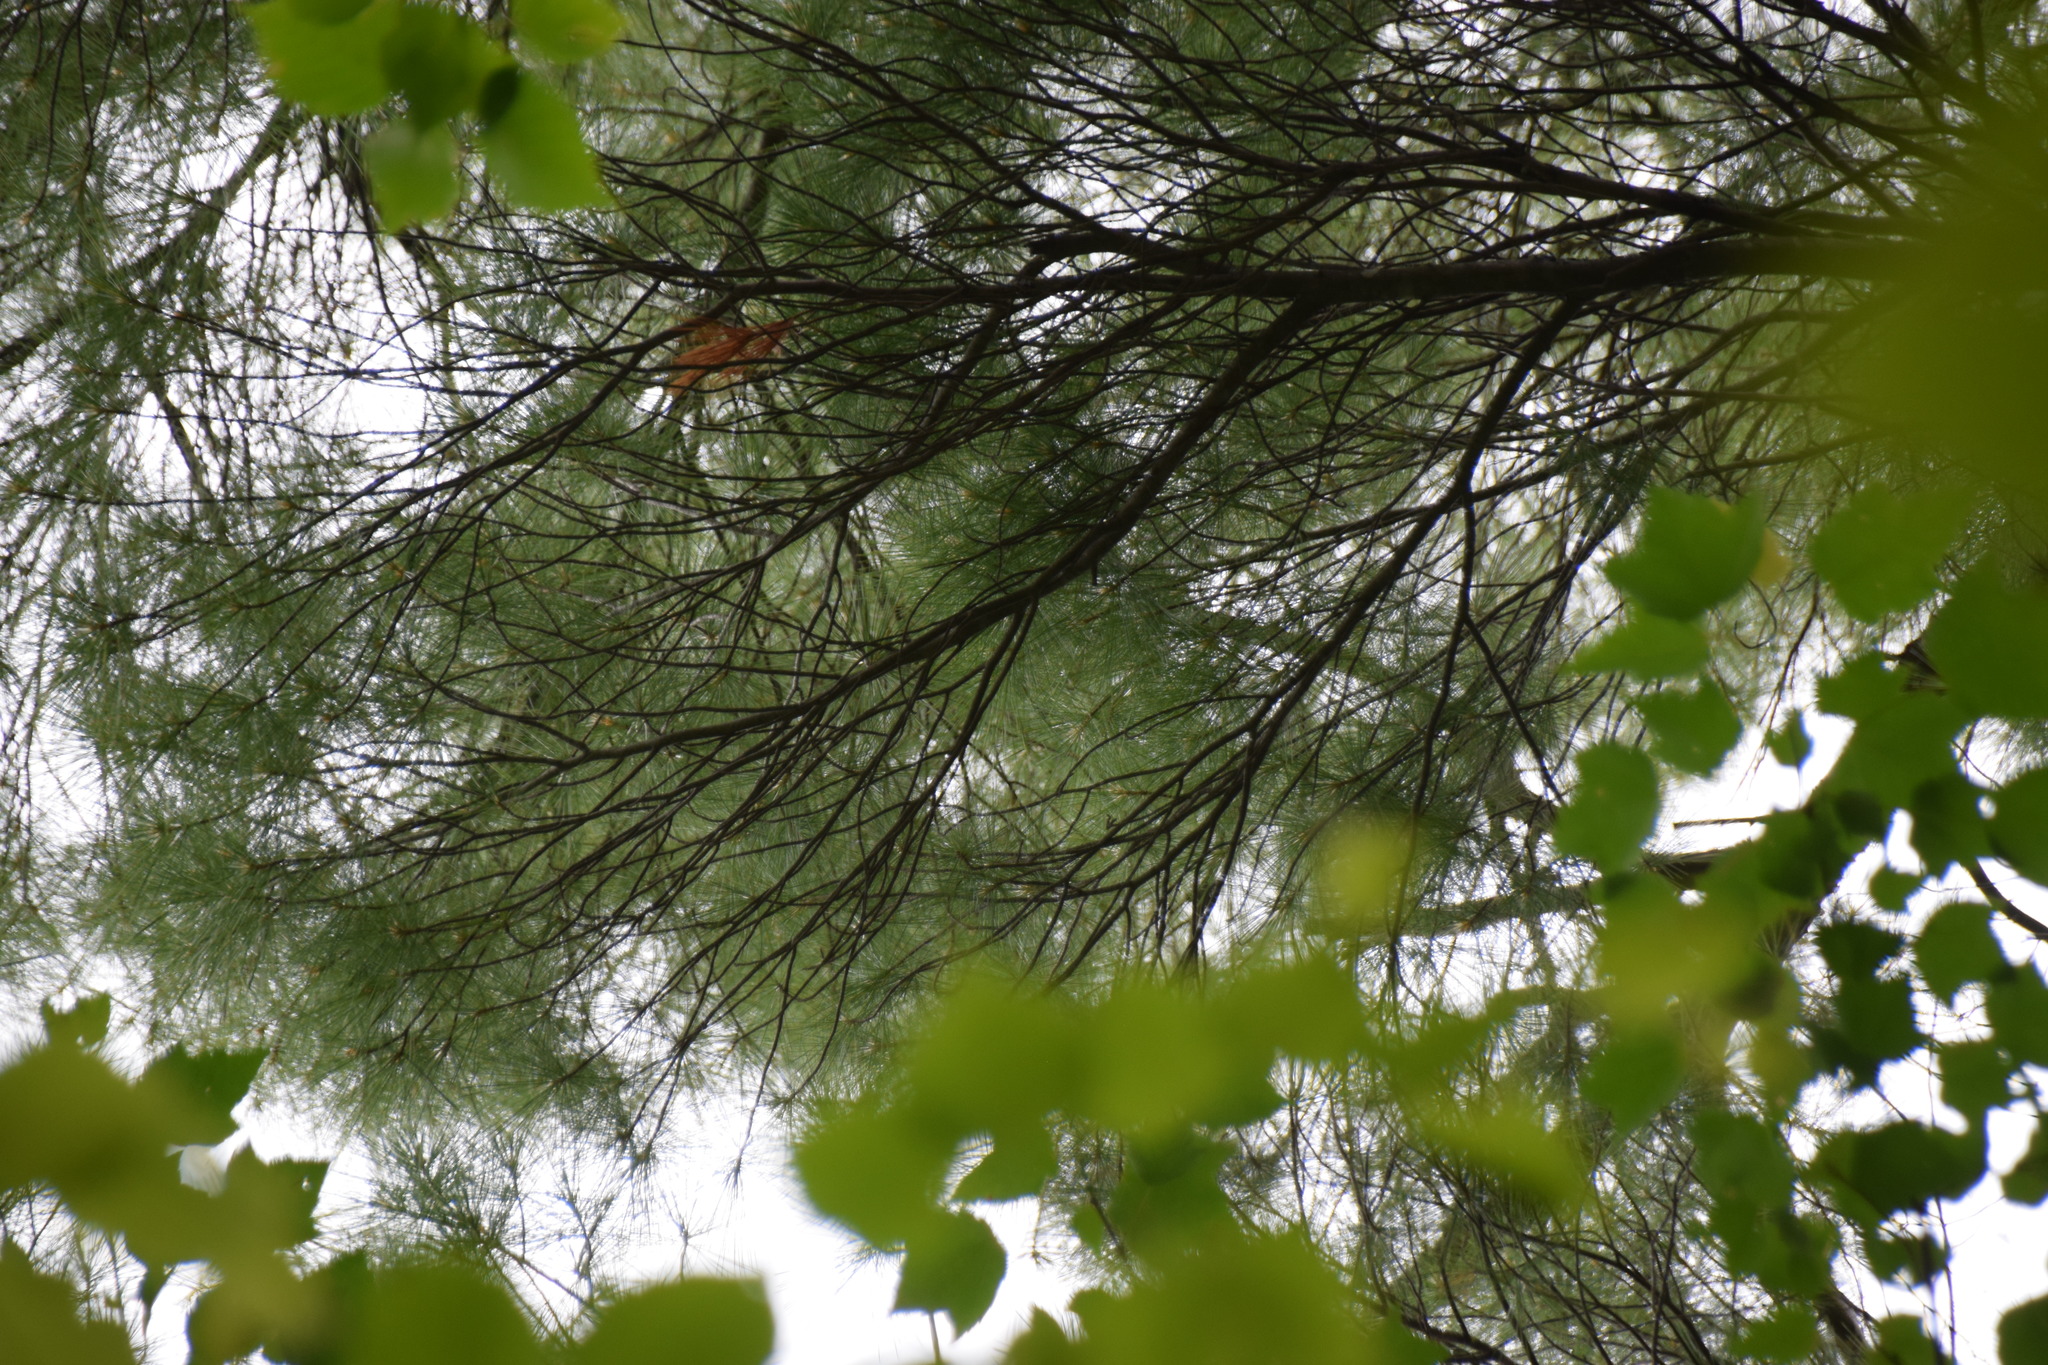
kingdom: Plantae
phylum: Tracheophyta
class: Pinopsida
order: Pinales
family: Pinaceae
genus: Pinus
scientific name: Pinus strobus
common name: Weymouth pine
